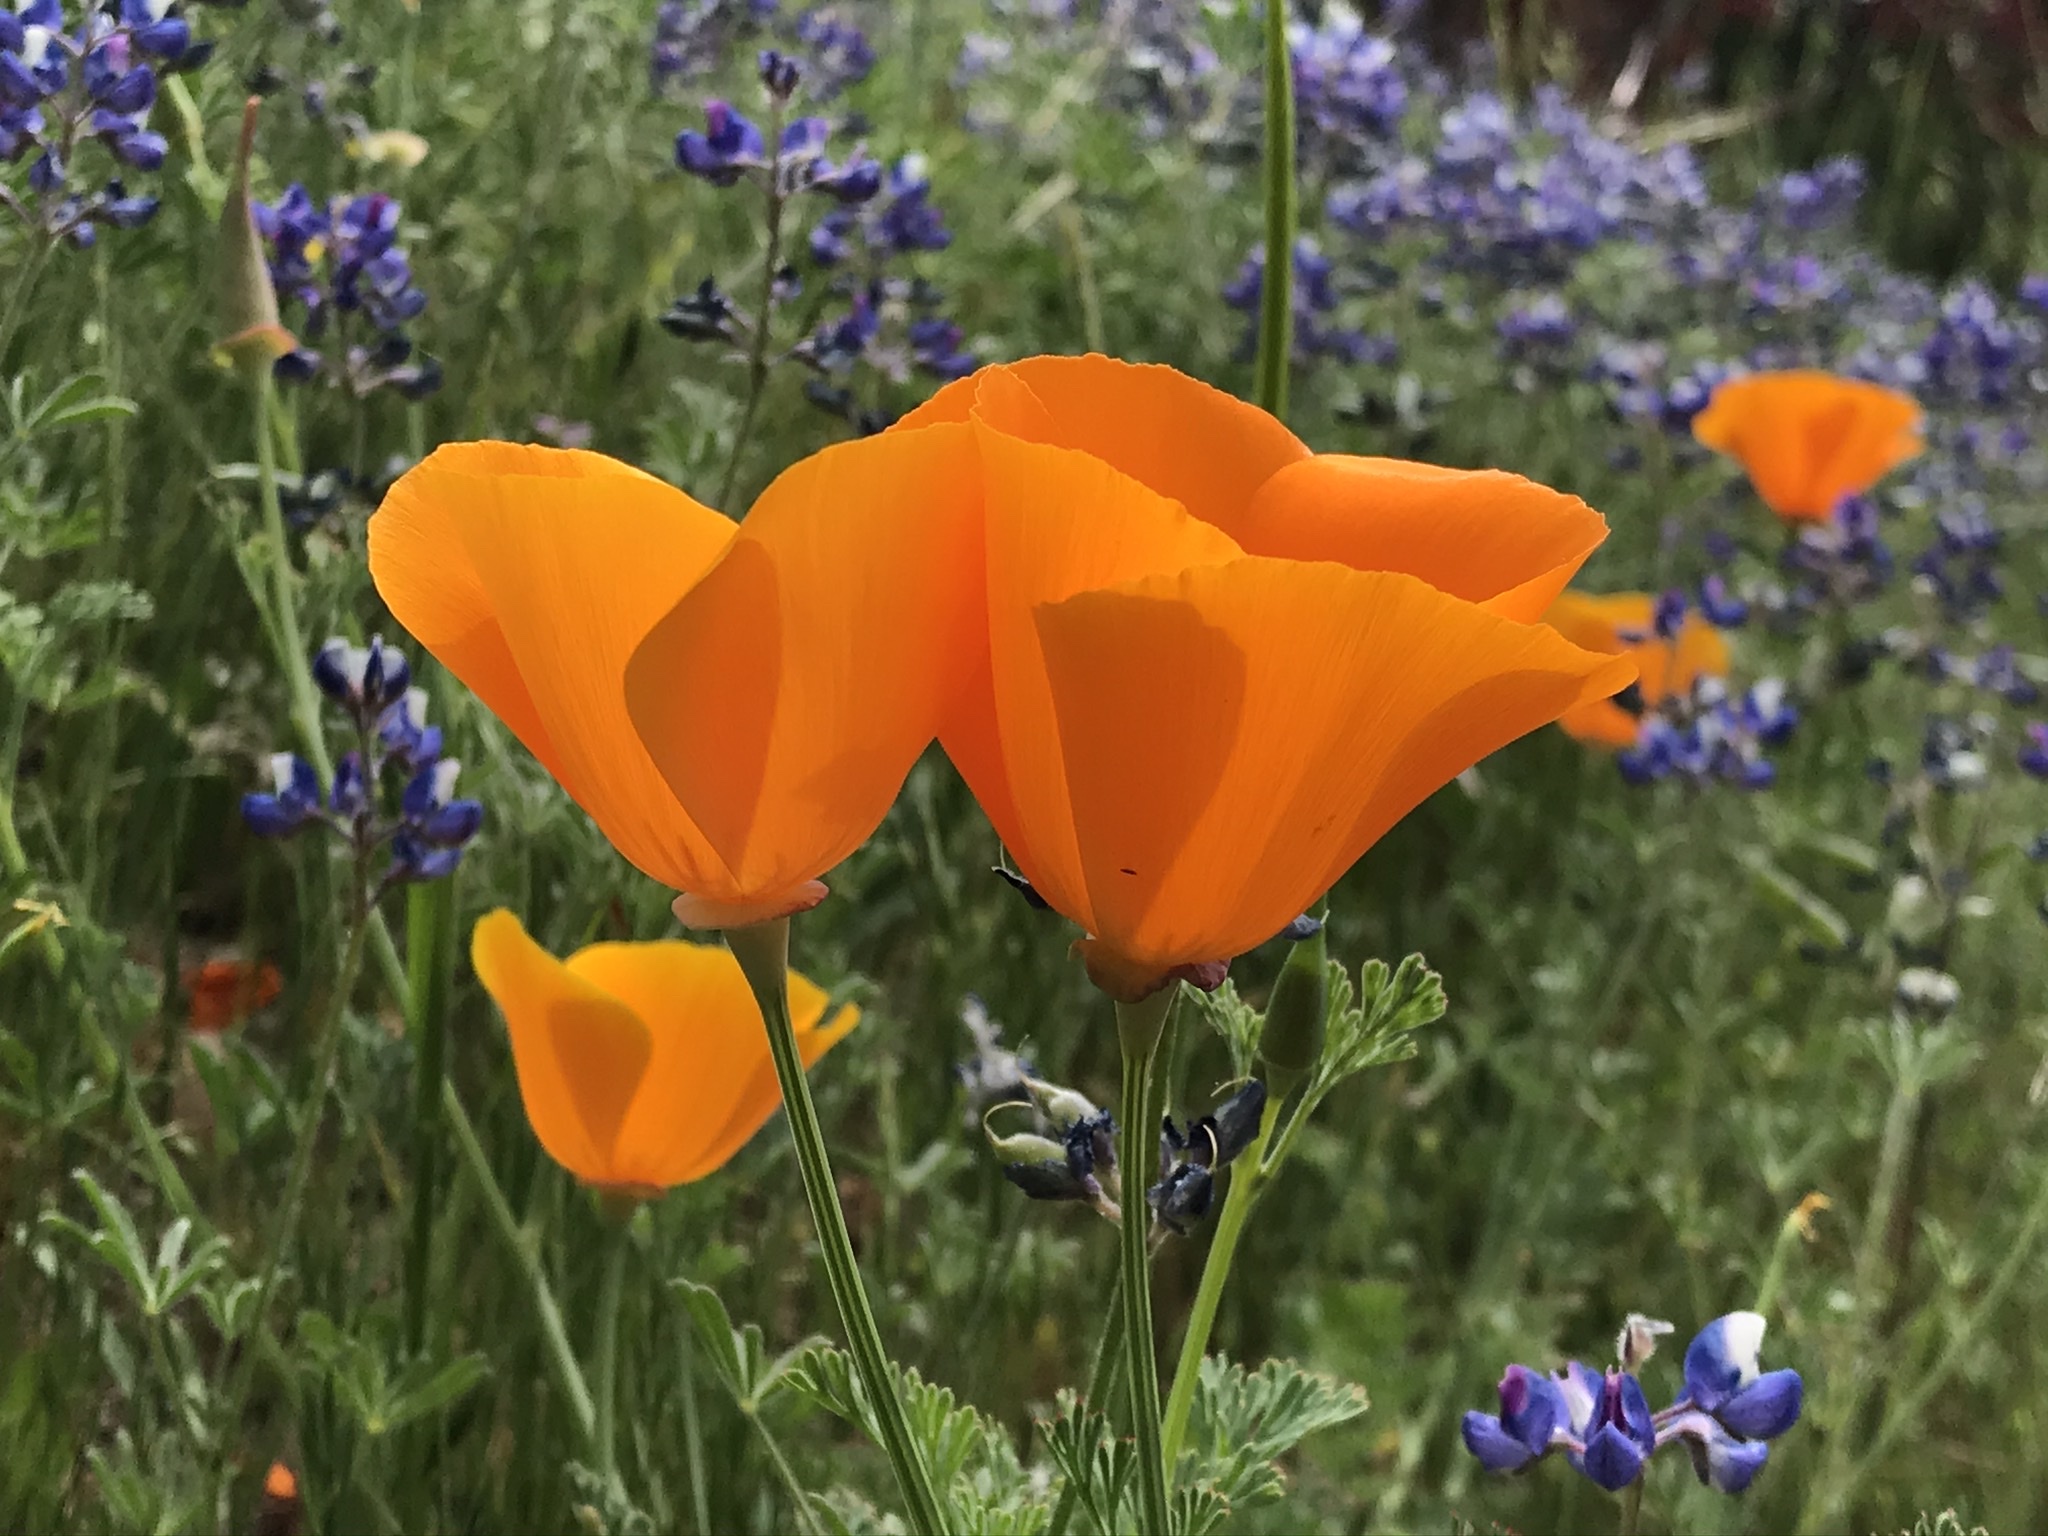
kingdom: Plantae
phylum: Tracheophyta
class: Magnoliopsida
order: Ranunculales
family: Papaveraceae
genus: Eschscholzia
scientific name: Eschscholzia californica
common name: California poppy
